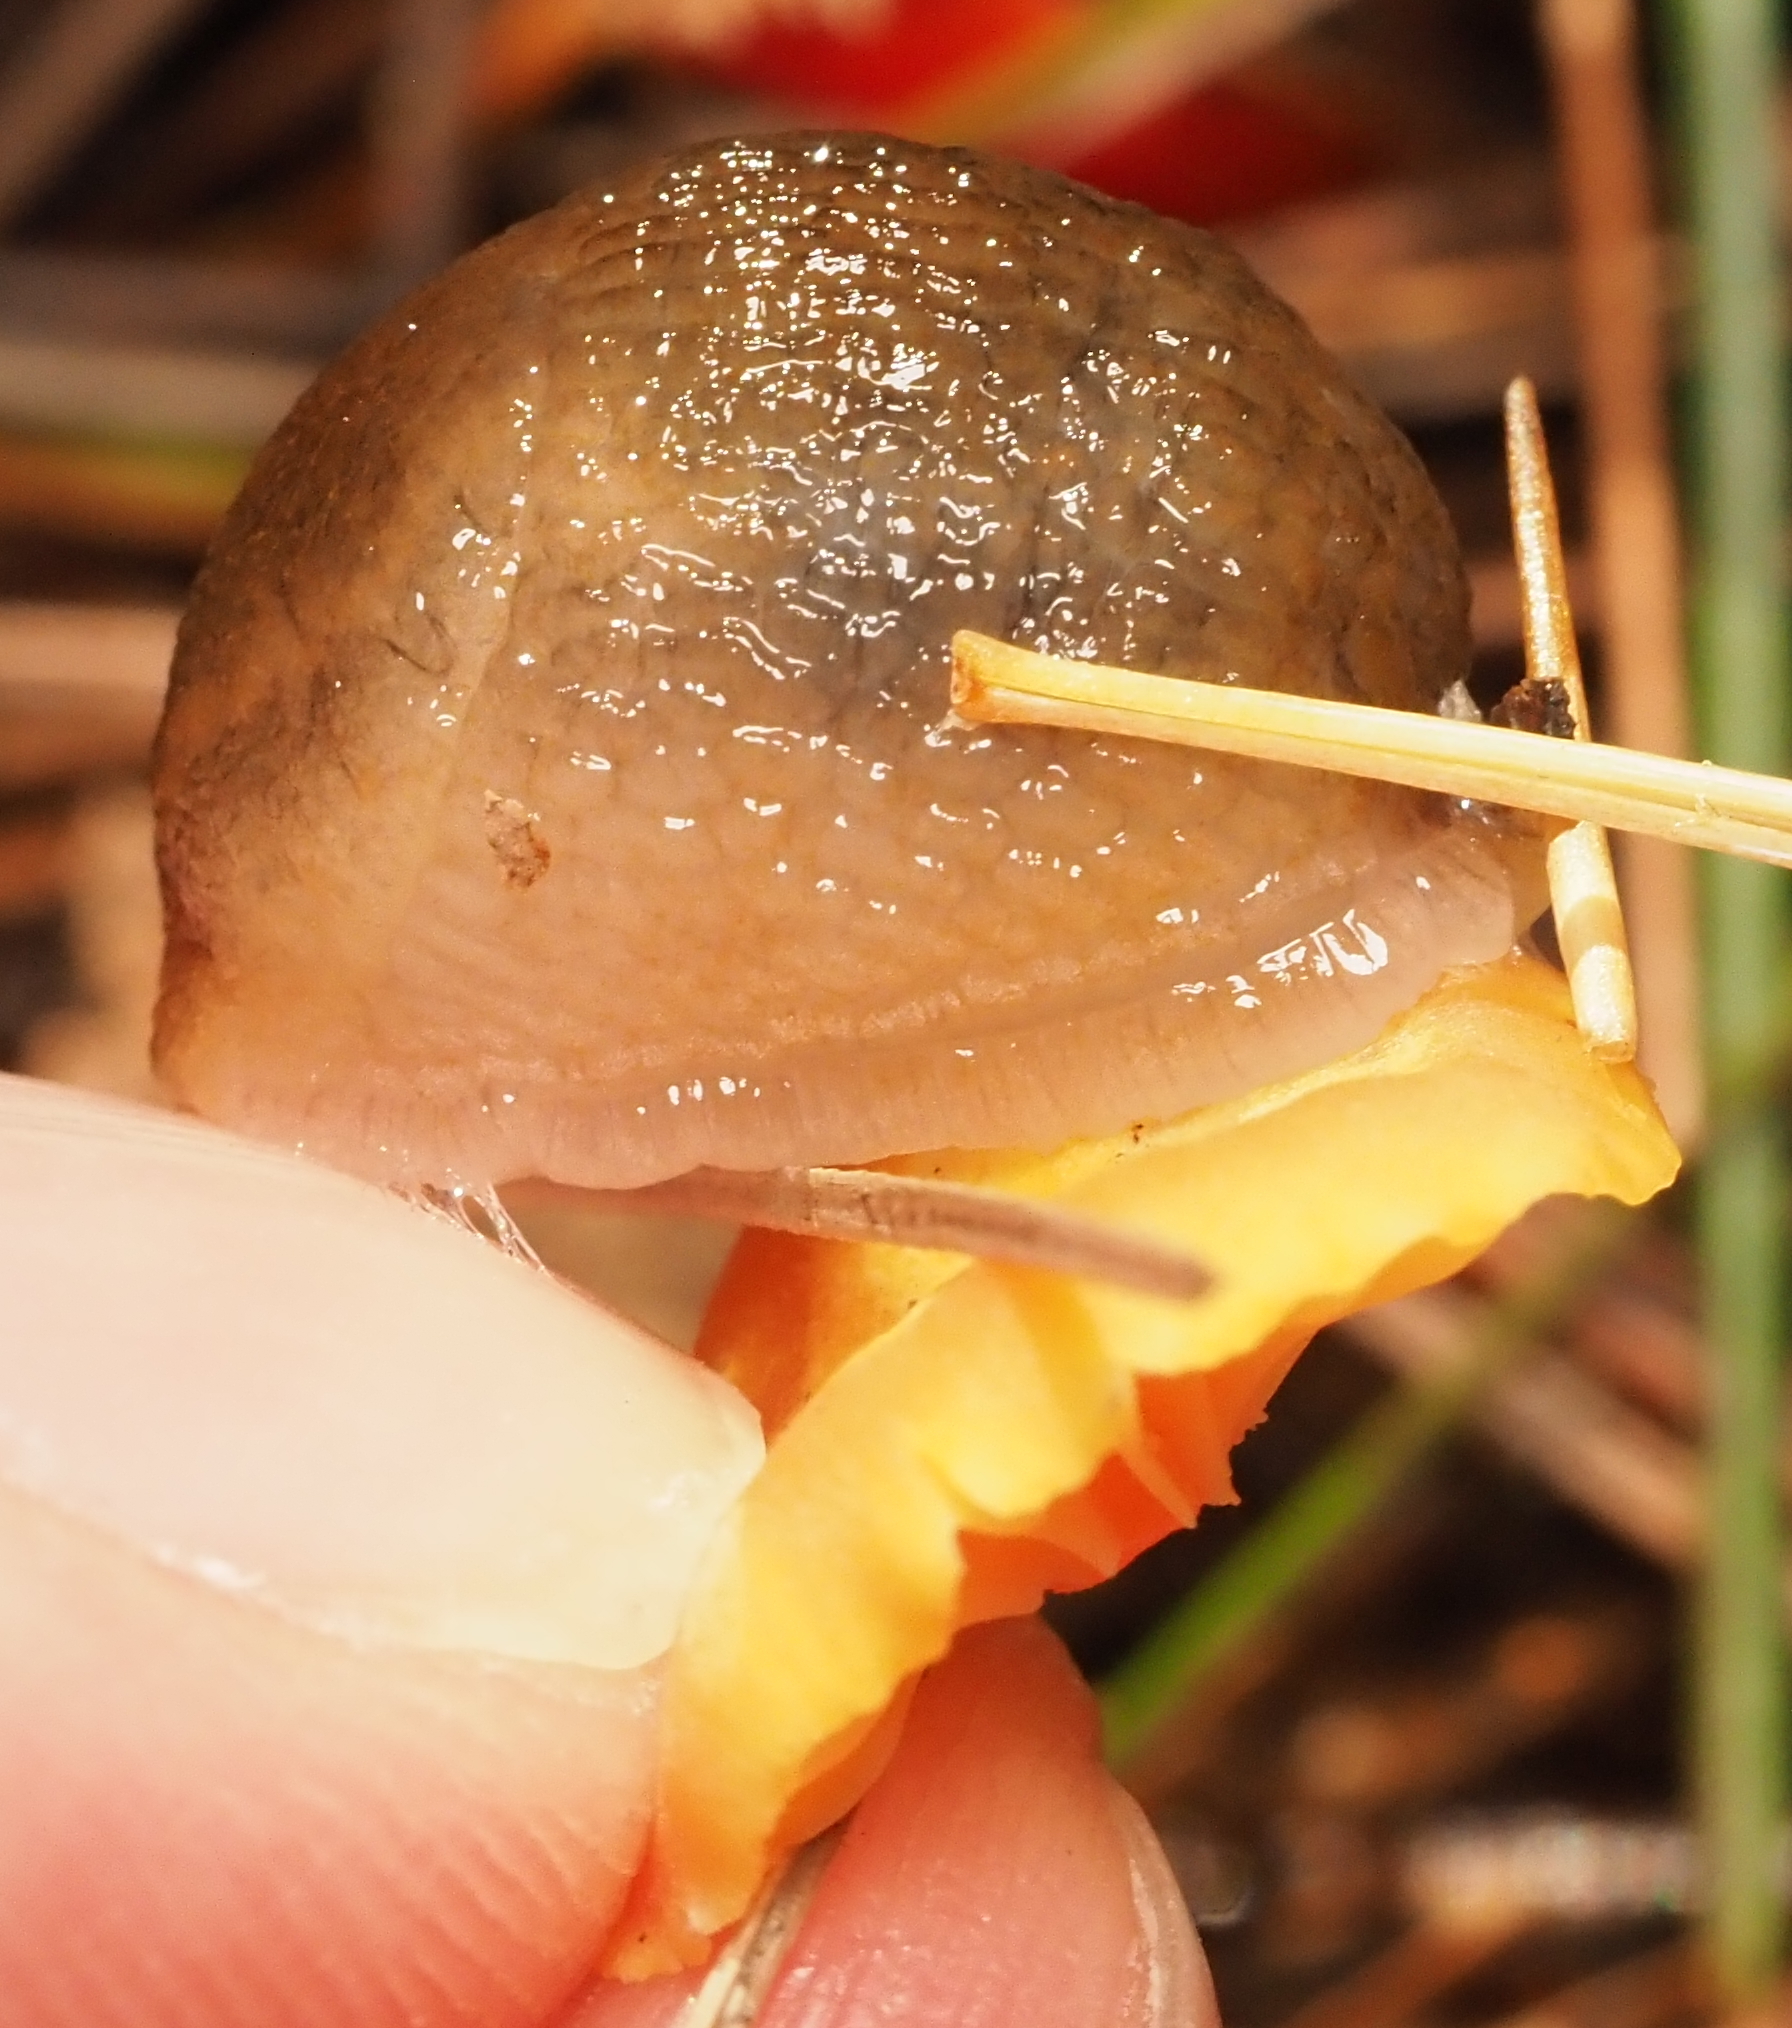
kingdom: Animalia
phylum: Mollusca
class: Gastropoda
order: Stylommatophora
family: Arionidae
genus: Arion
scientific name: Arion subfuscus
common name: Dusky arion
